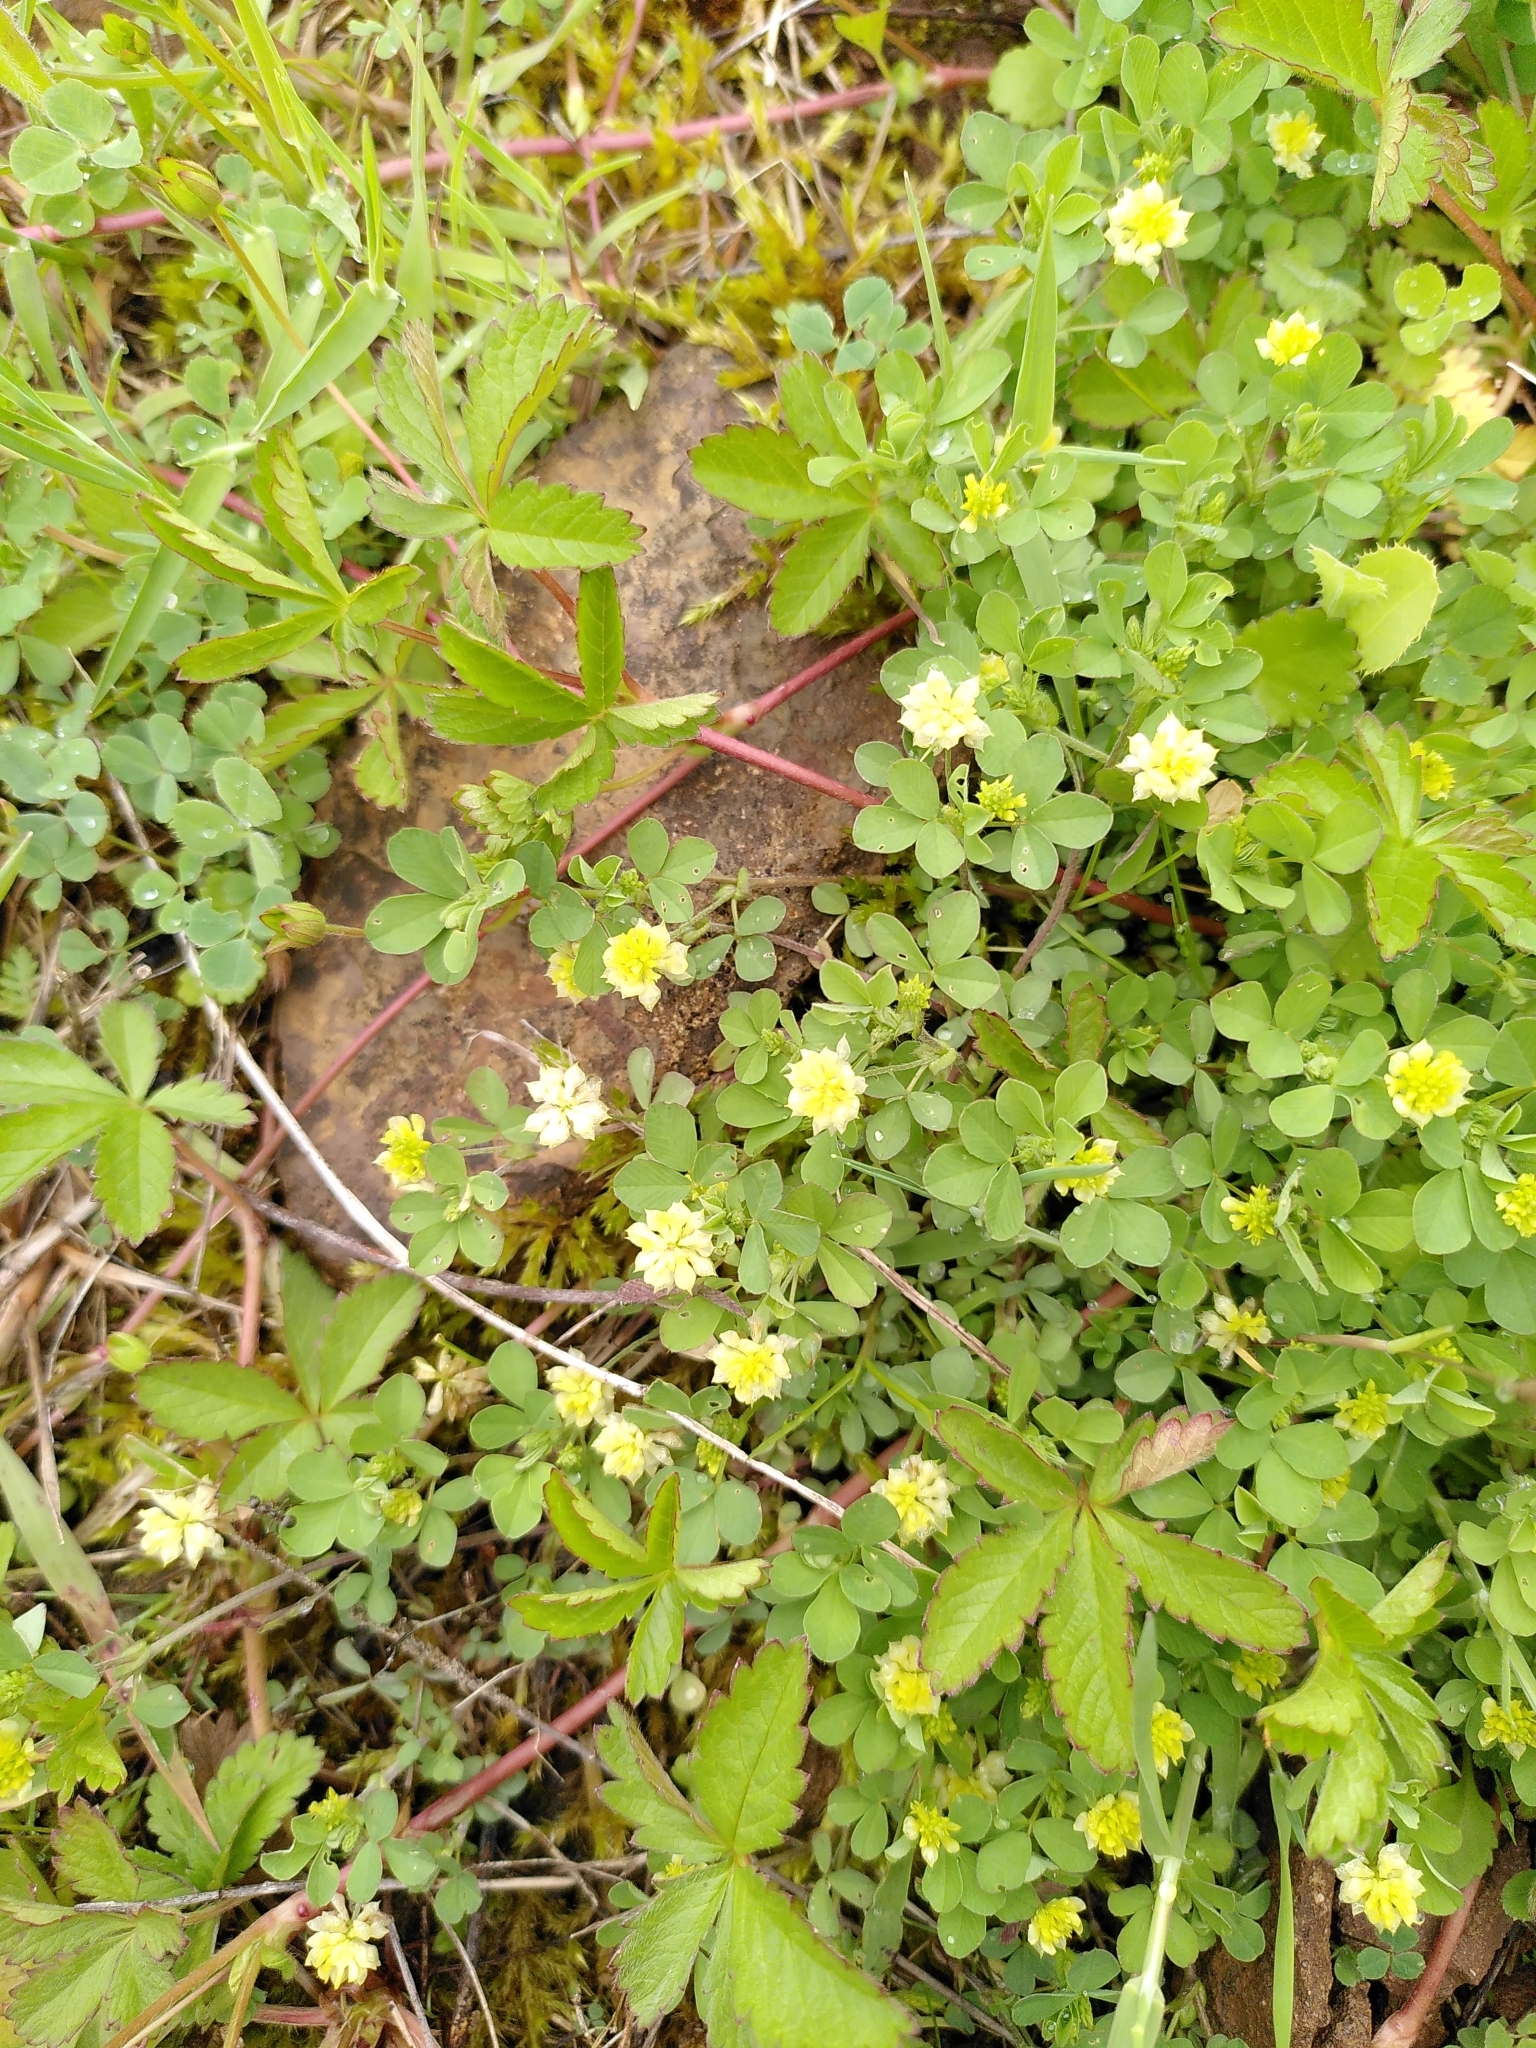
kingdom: Plantae
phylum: Tracheophyta
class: Magnoliopsida
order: Fabales
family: Fabaceae
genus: Trifolium
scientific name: Trifolium campestre
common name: Field clover
